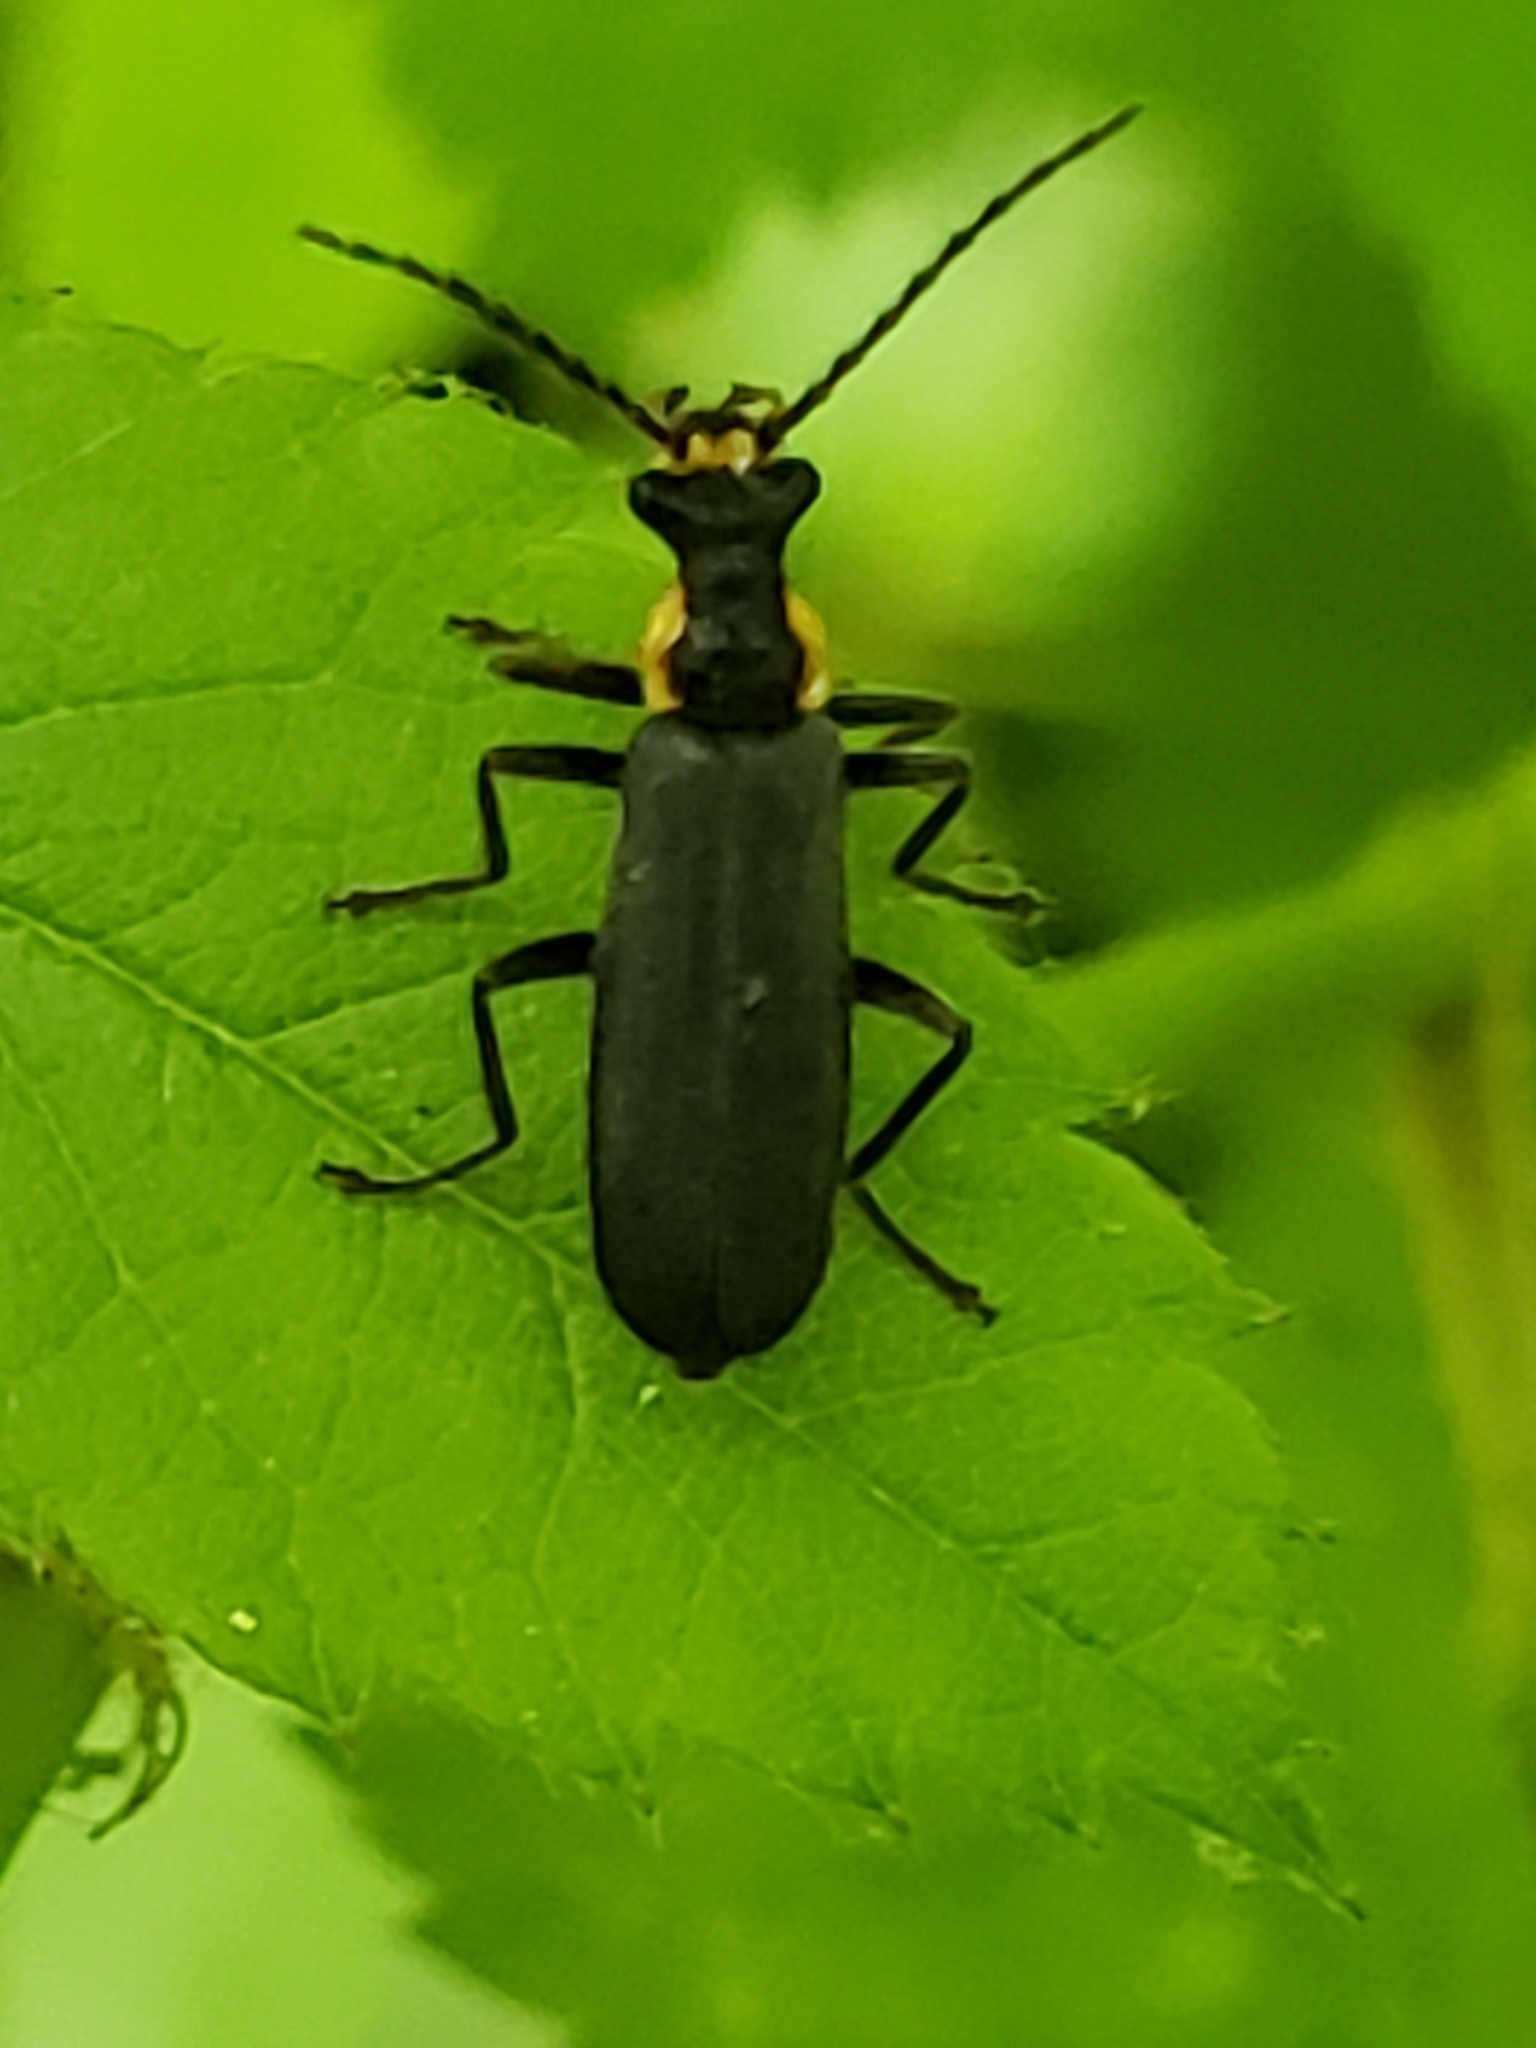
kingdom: Animalia
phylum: Arthropoda
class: Insecta
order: Coleoptera
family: Cantharidae
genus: Podabrus
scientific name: Podabrus rugosulus
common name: Wrinkled soldier beetle
